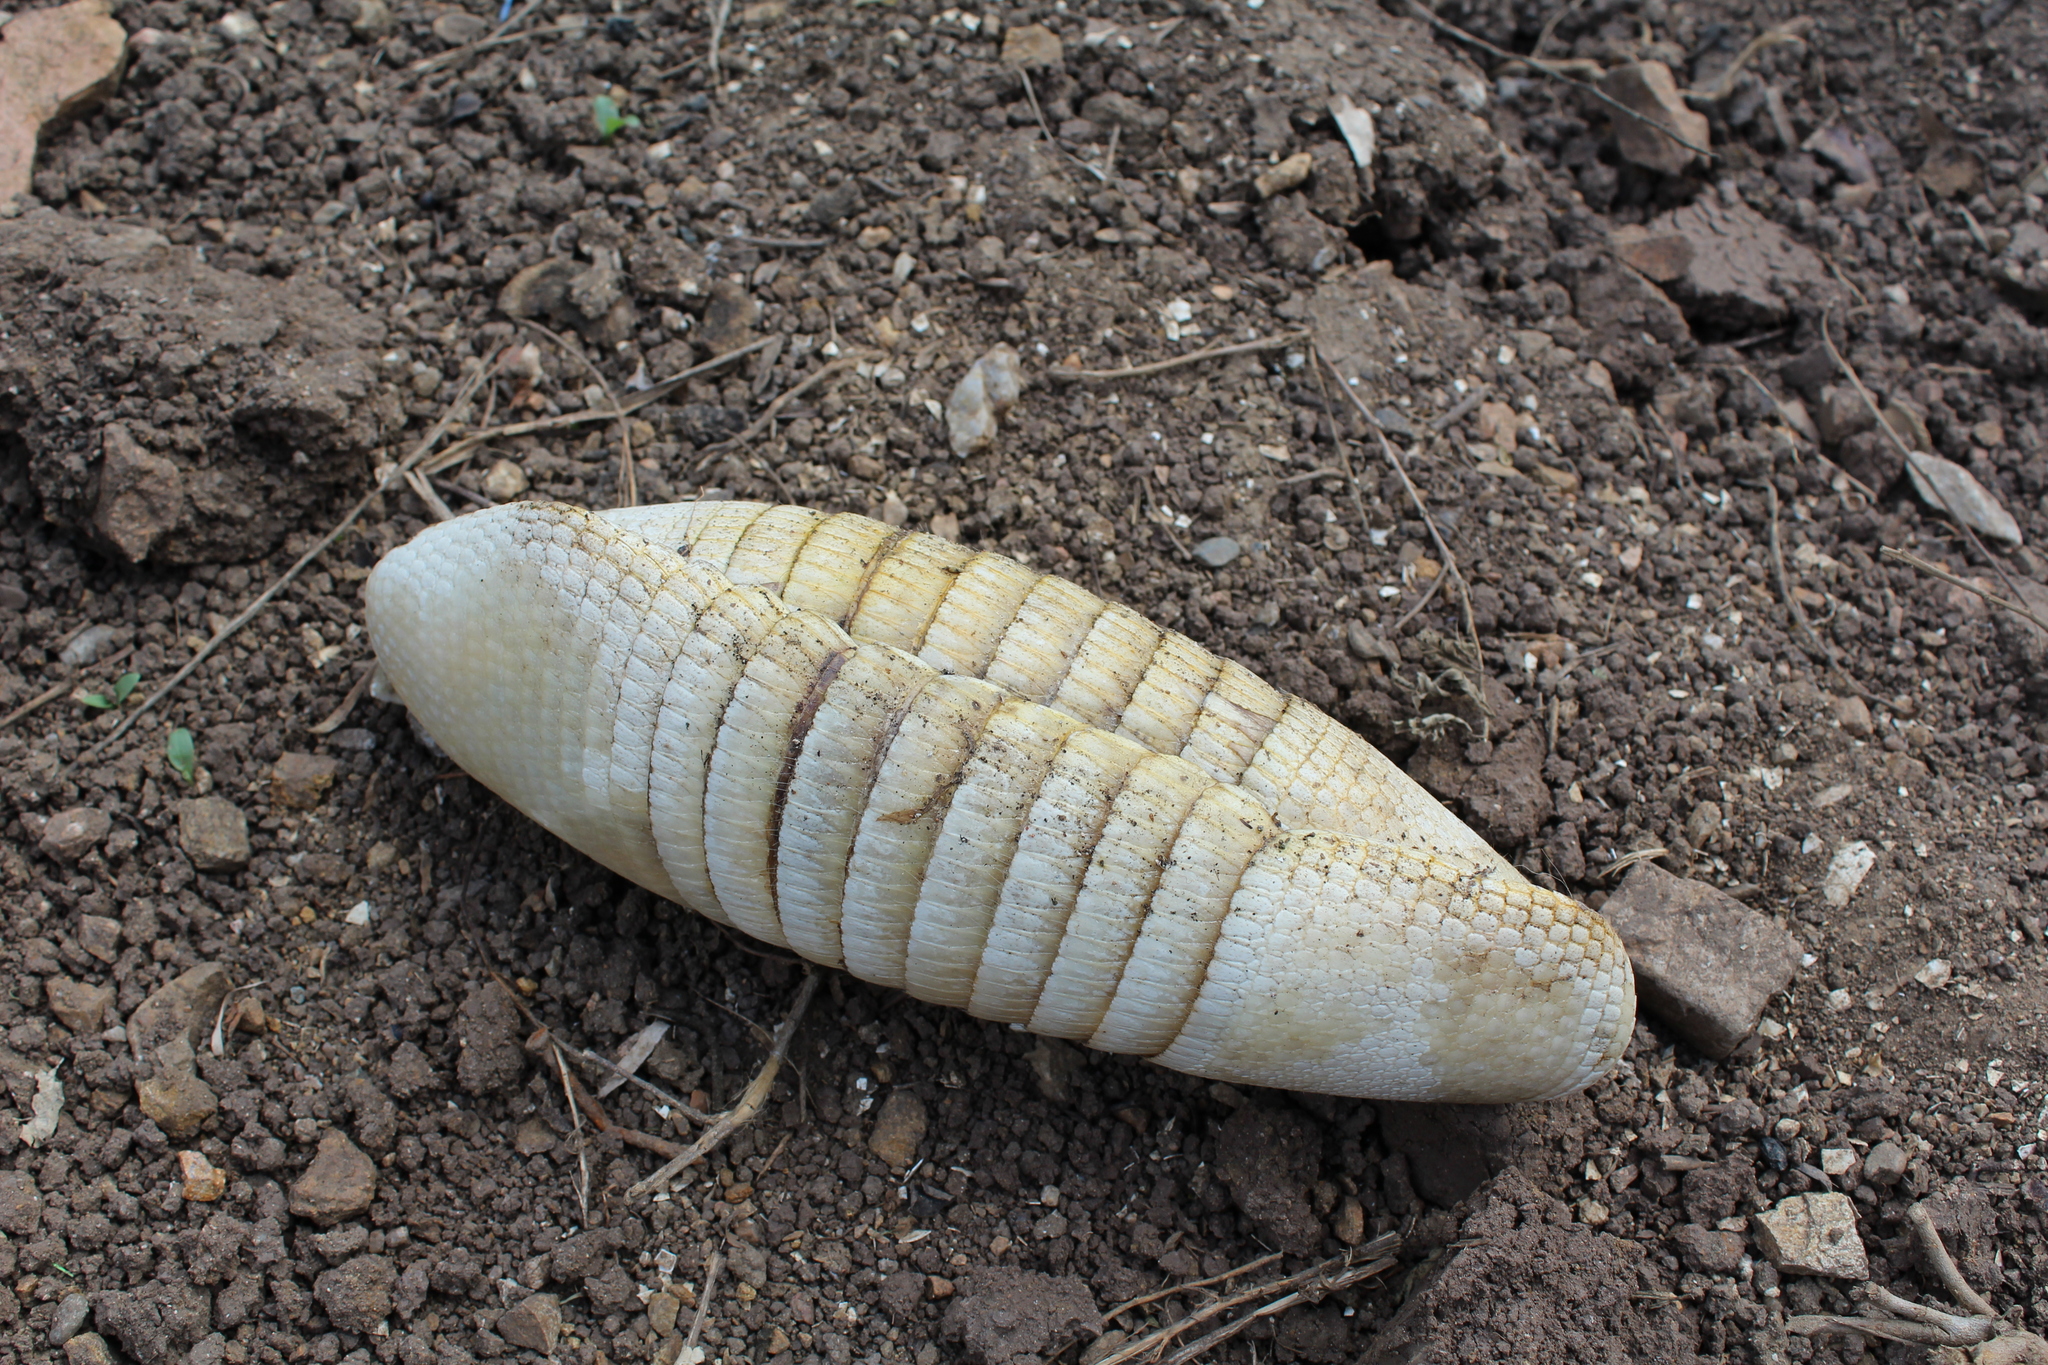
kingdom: Animalia
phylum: Chordata
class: Mammalia
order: Cingulata
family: Dasypodidae
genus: Dasypus
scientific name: Dasypus novemcinctus
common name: Nine-banded armadillo
